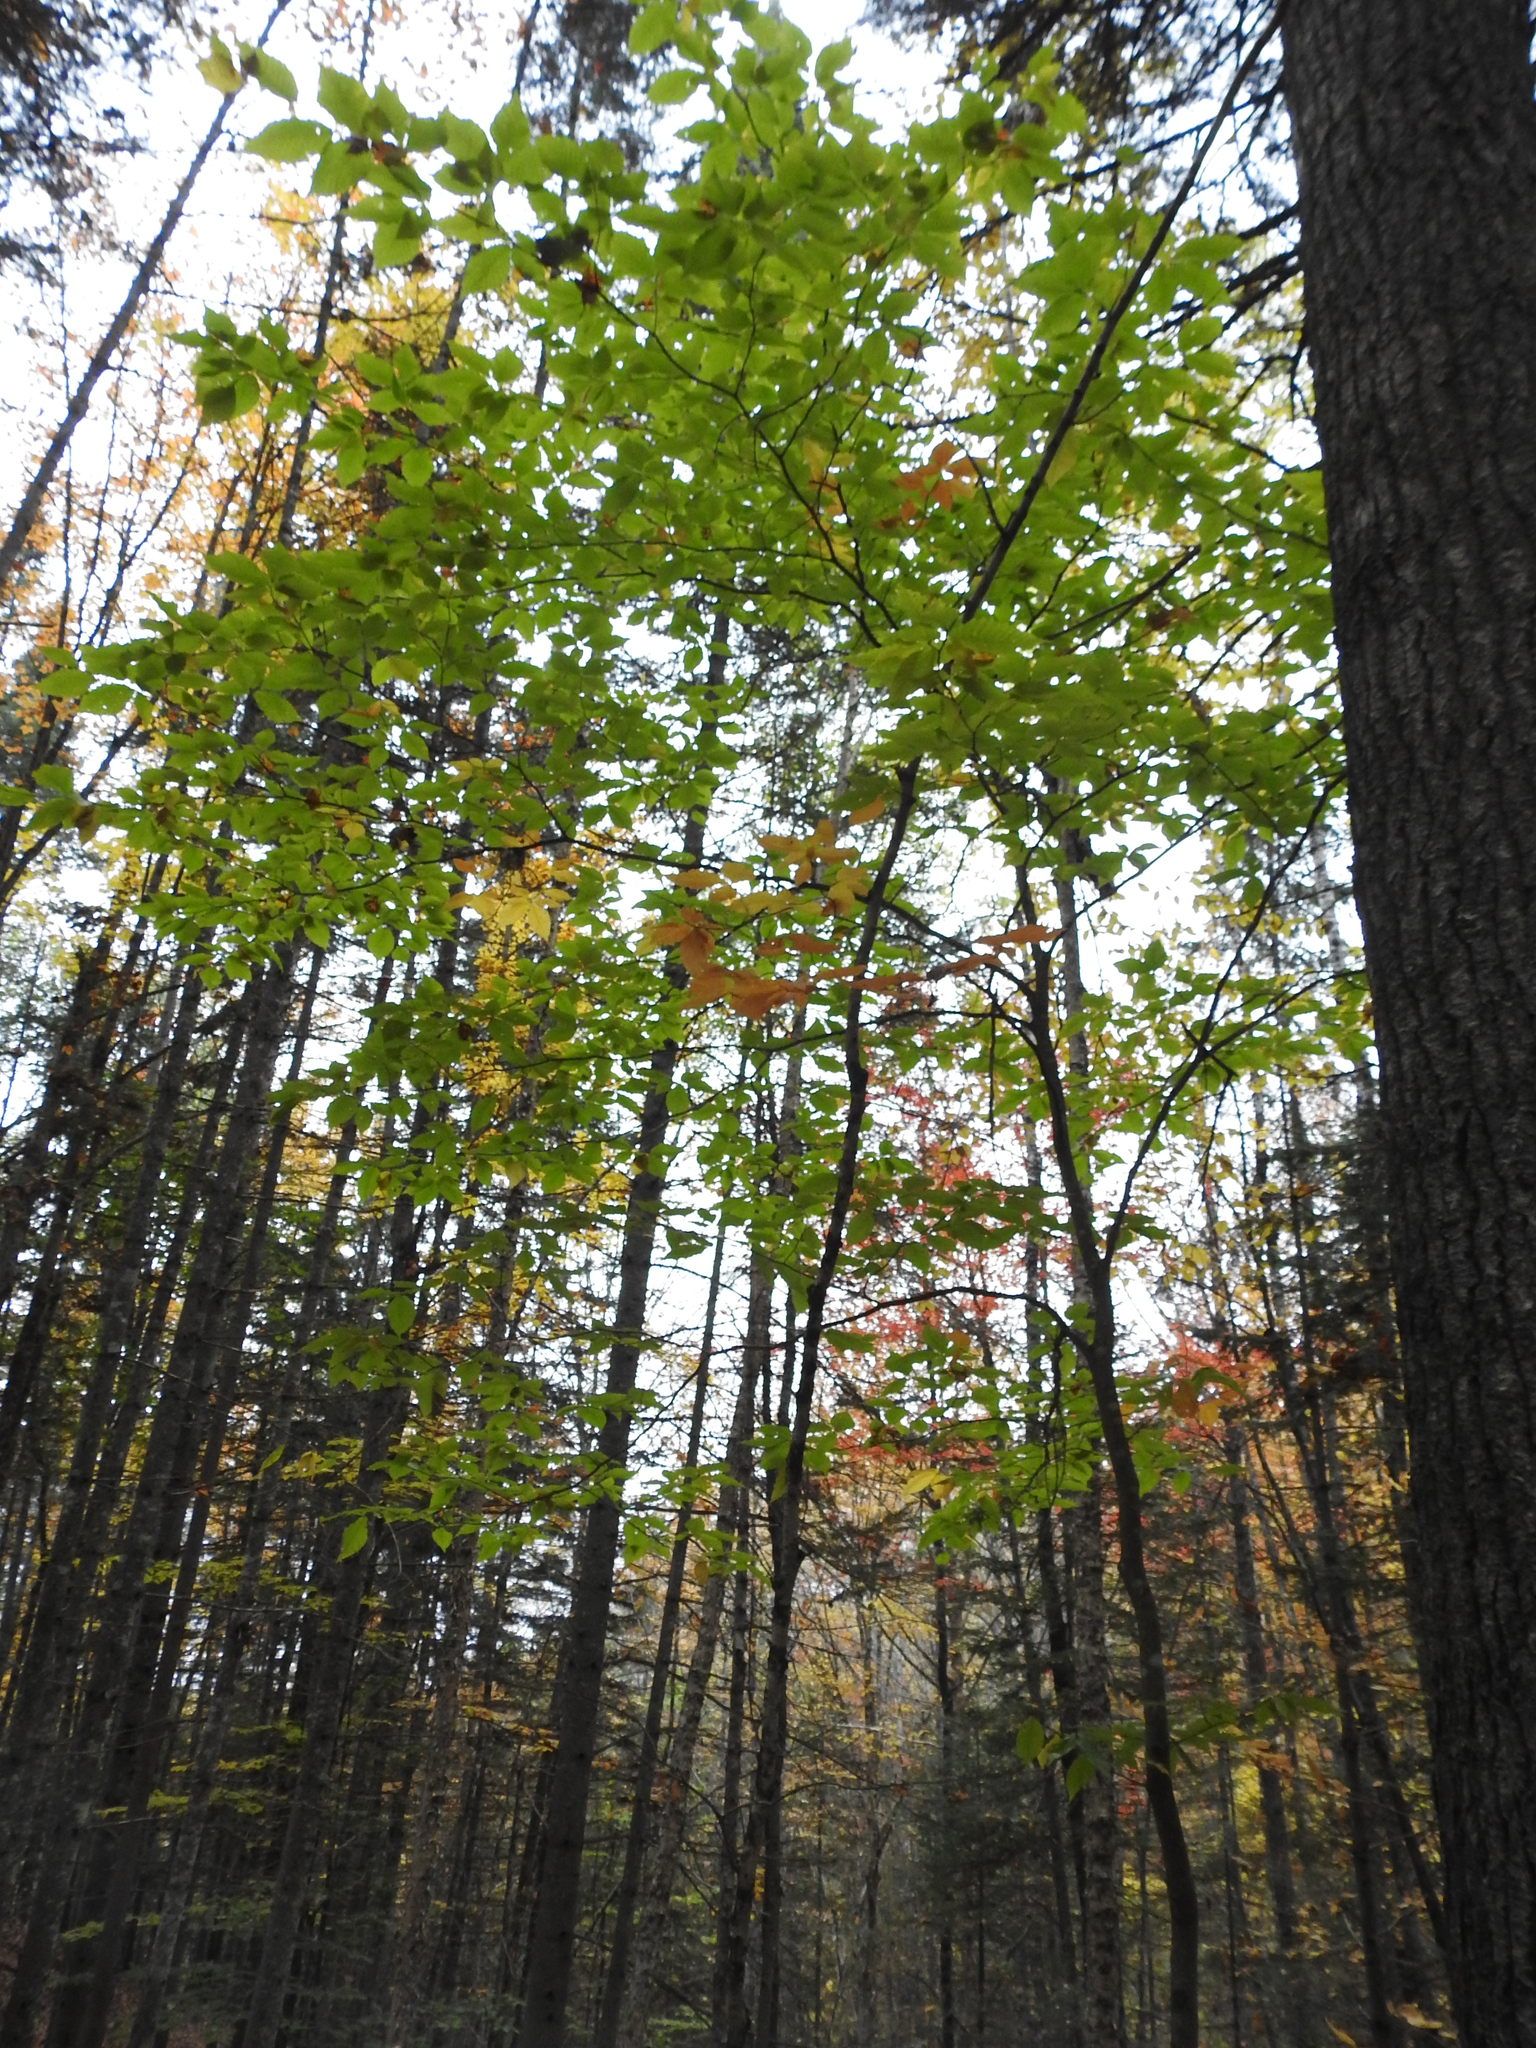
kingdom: Plantae
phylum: Tracheophyta
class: Magnoliopsida
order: Fagales
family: Fagaceae
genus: Fagus
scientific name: Fagus grandifolia
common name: American beech
